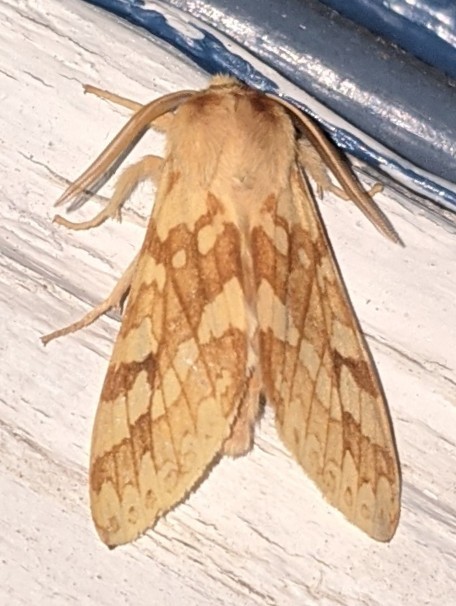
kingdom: Animalia
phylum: Arthropoda
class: Insecta
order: Lepidoptera
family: Erebidae
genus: Lophocampa
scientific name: Lophocampa maculata
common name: Spotted tussock moth
